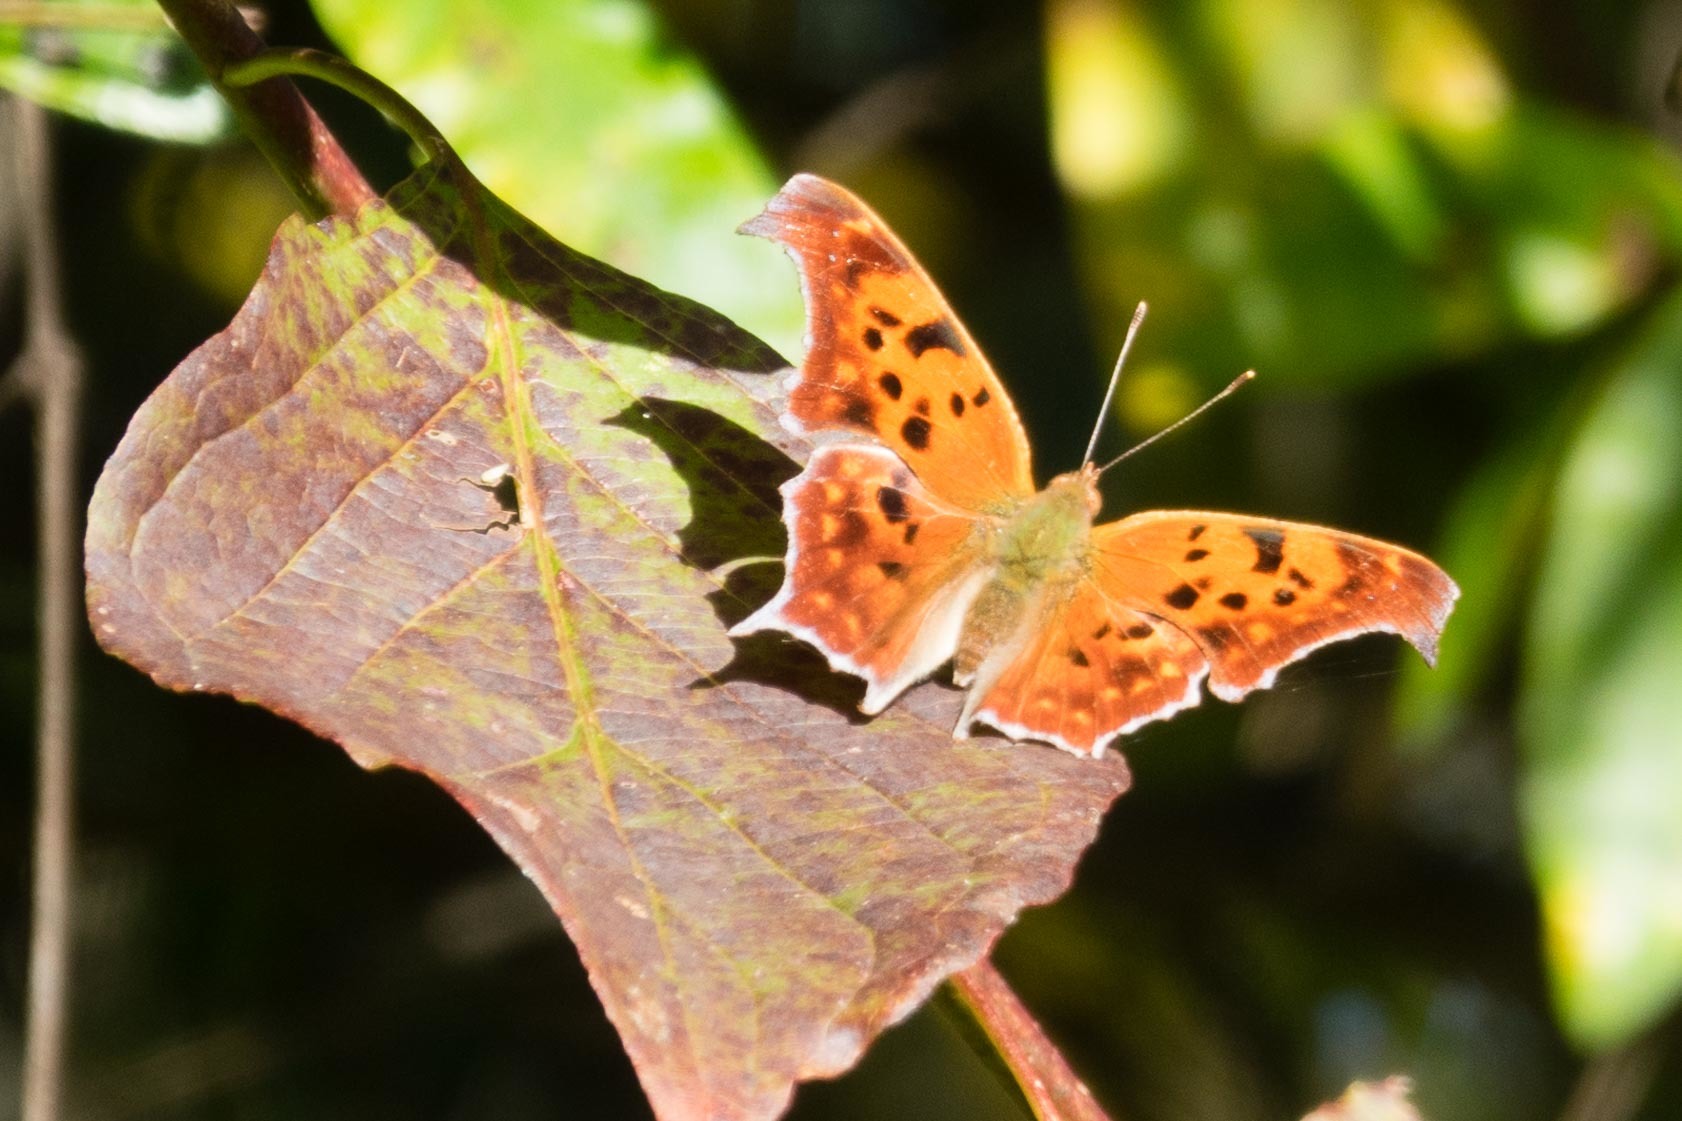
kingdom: Animalia
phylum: Arthropoda
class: Insecta
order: Lepidoptera
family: Nymphalidae
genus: Polygonia
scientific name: Polygonia interrogationis
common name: Question mark
